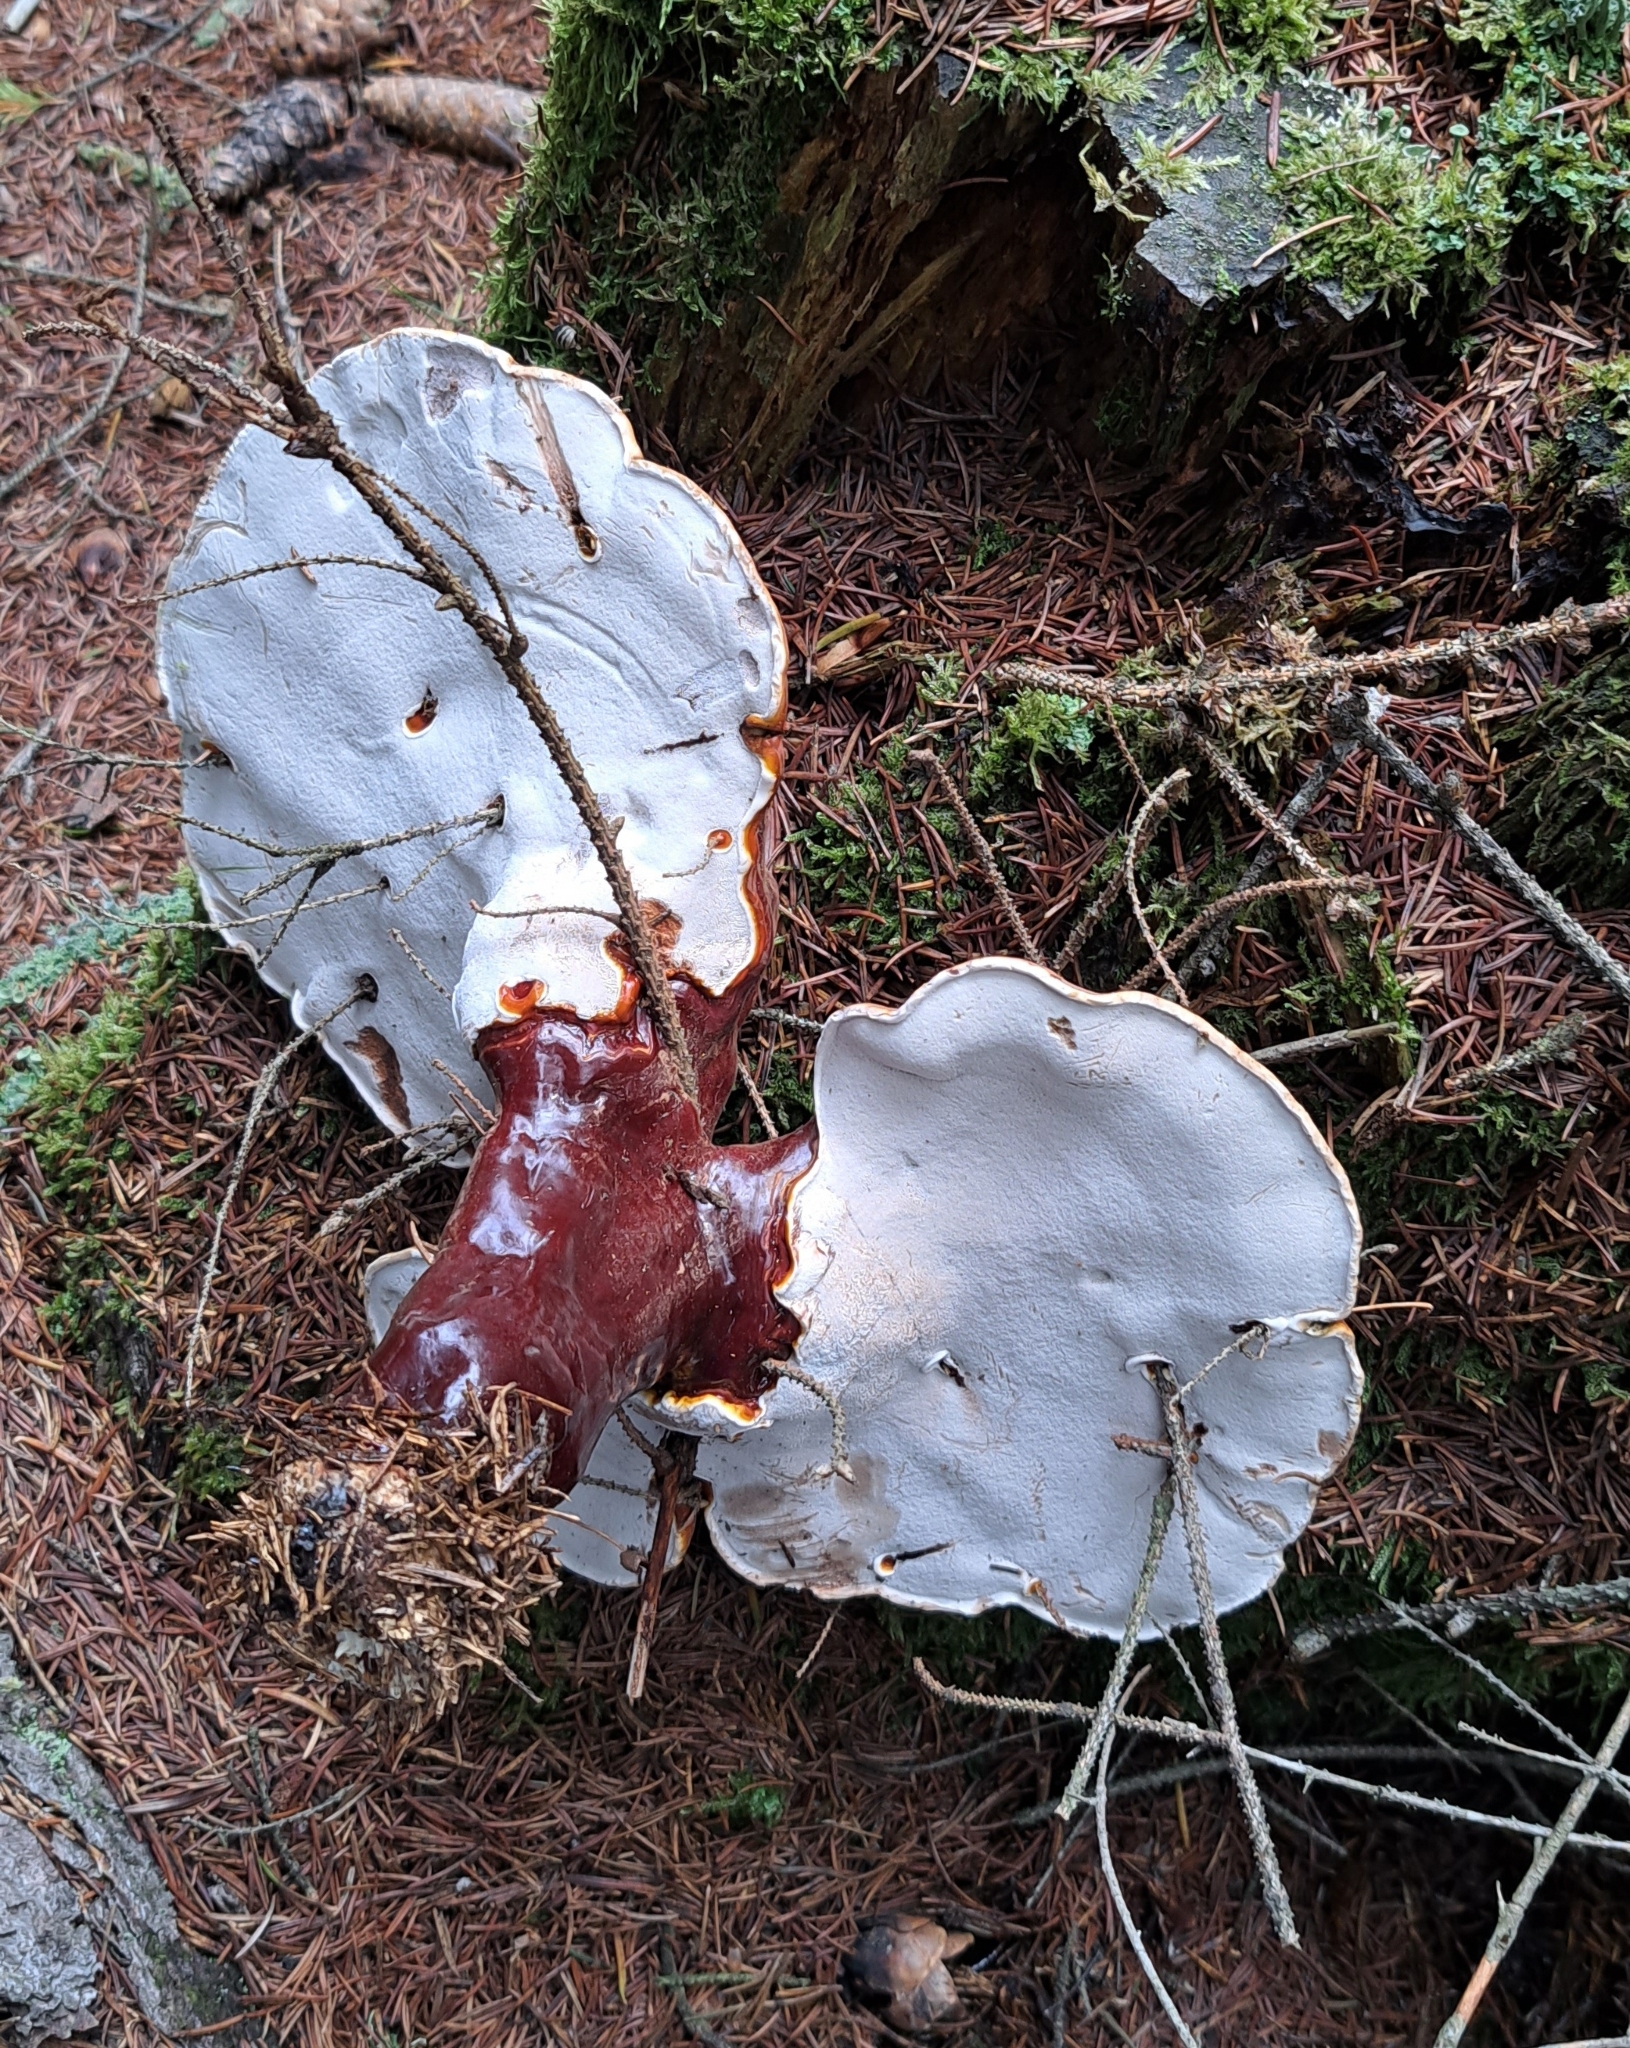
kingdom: Fungi
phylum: Basidiomycota
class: Agaricomycetes
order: Polyporales
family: Polyporaceae
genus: Ganoderma
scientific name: Ganoderma lucidum
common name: Lacquered bracket
